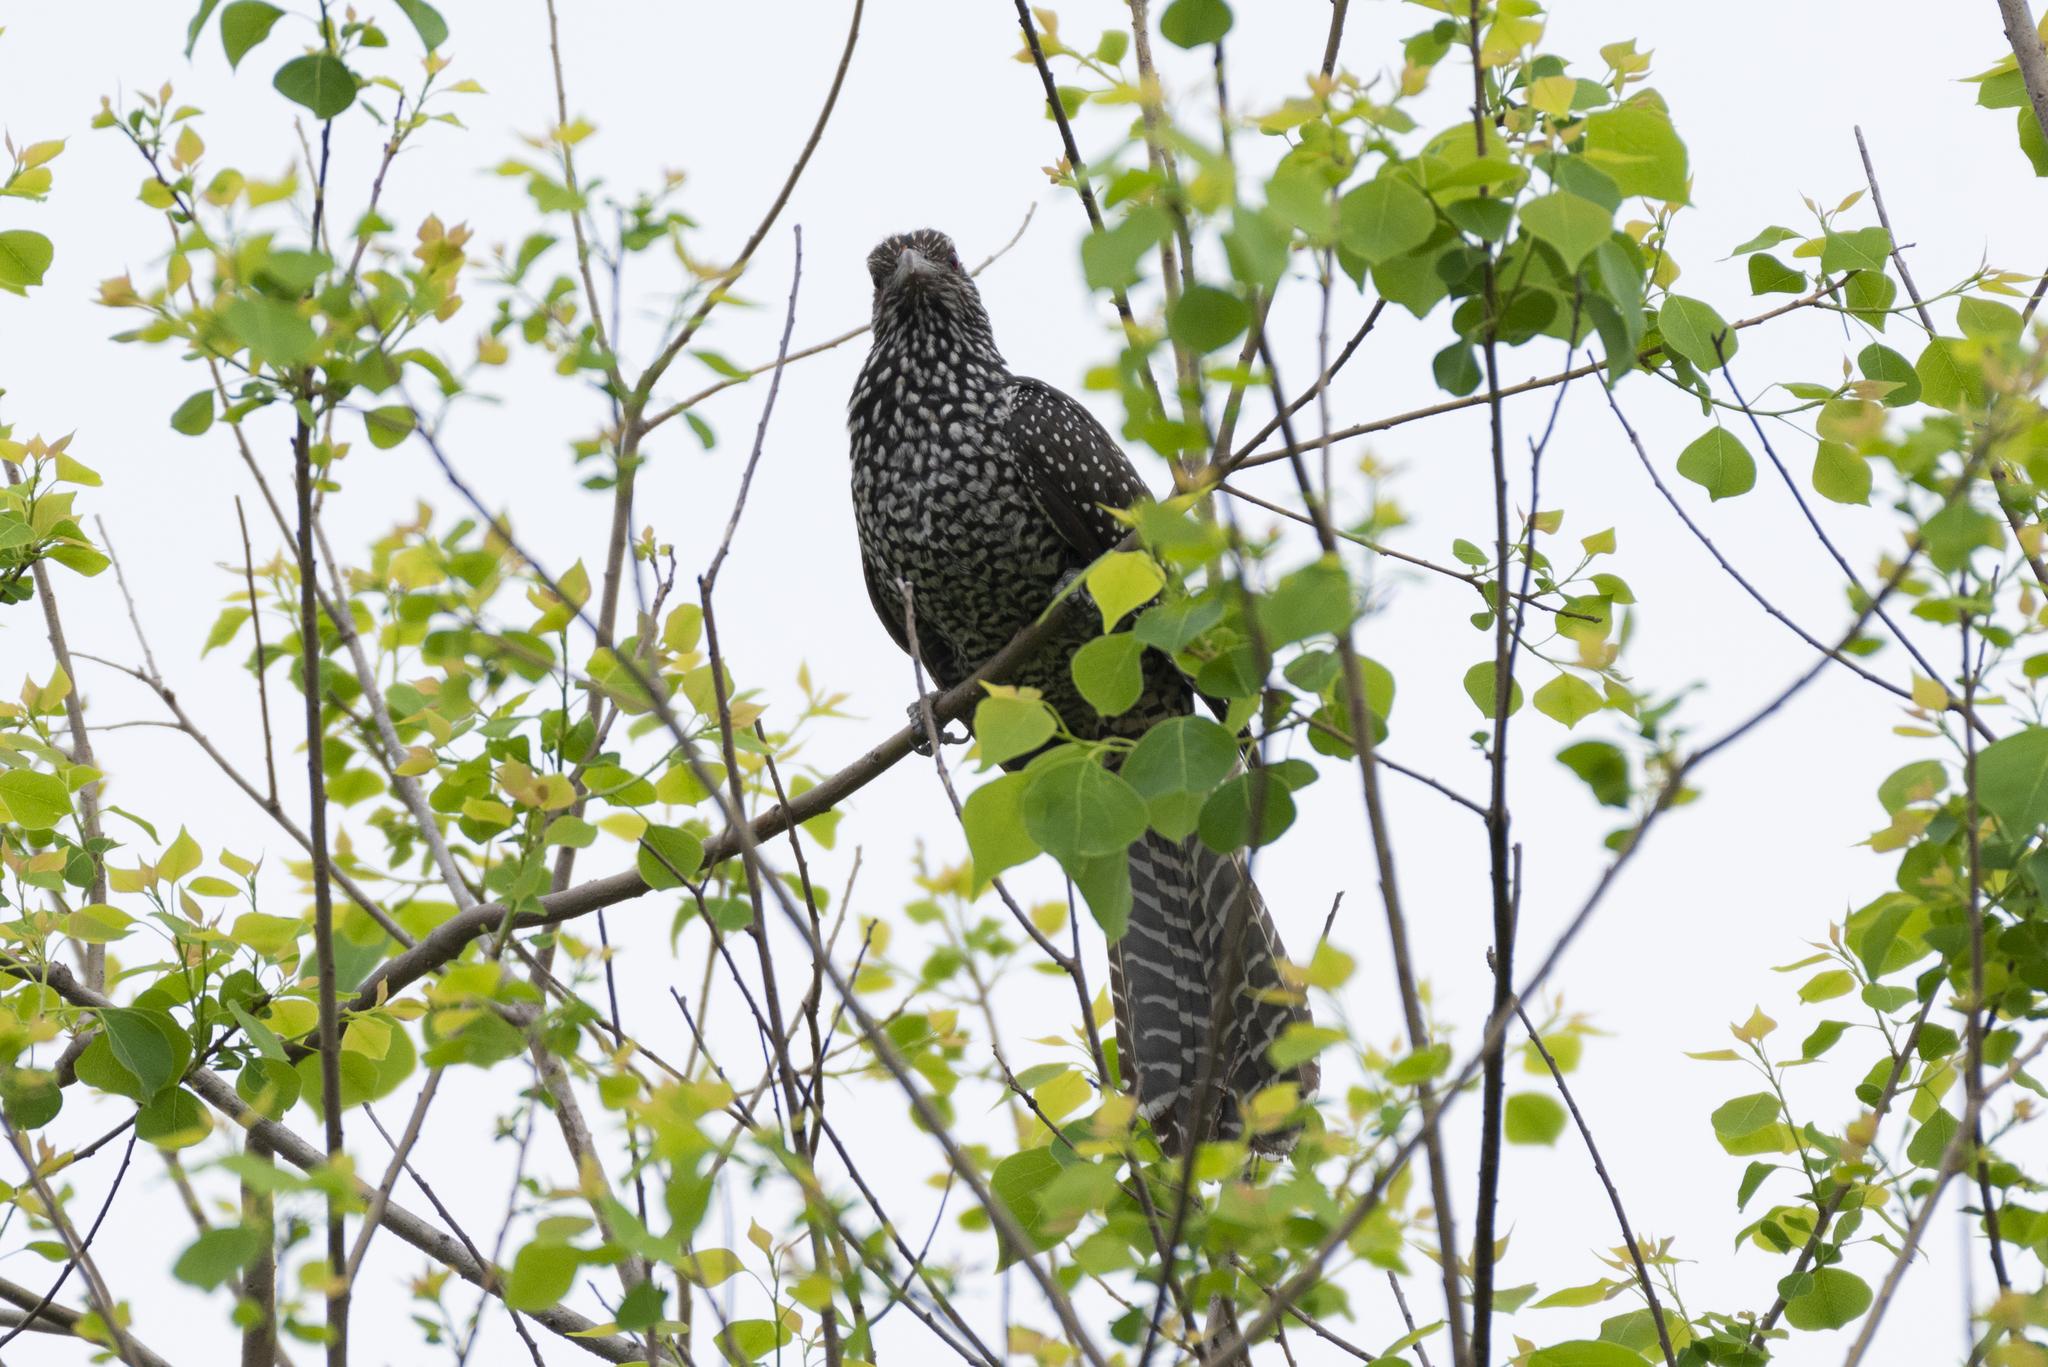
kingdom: Animalia
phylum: Chordata
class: Aves
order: Cuculiformes
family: Cuculidae
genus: Eudynamys
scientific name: Eudynamys scolopaceus
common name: Asian koel
